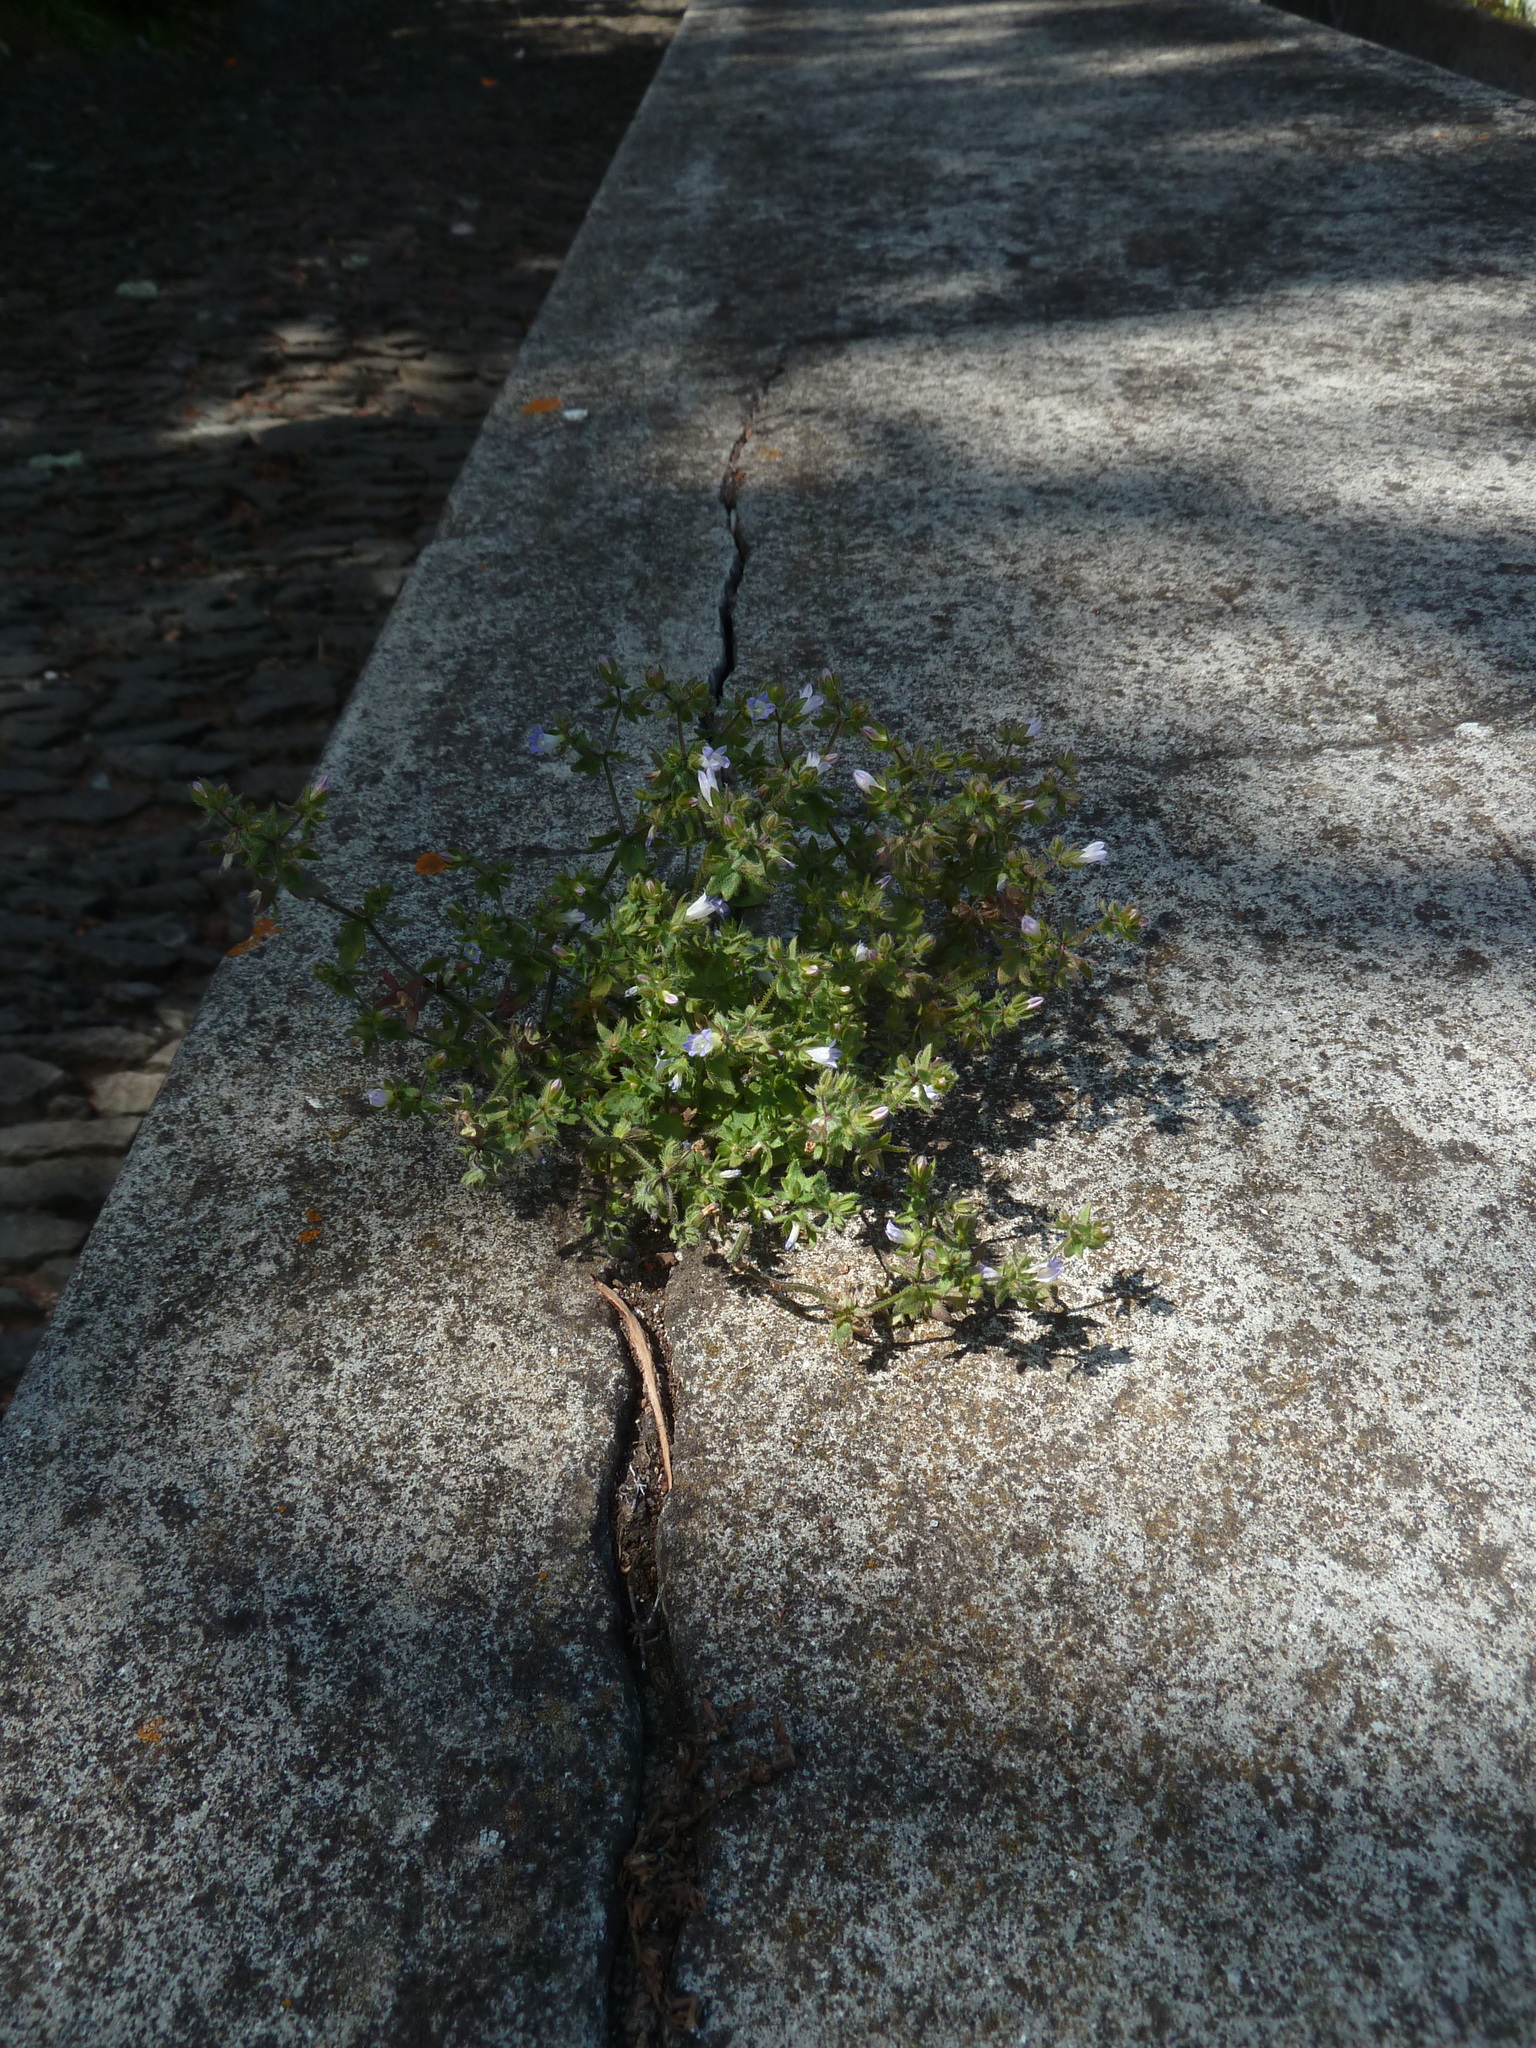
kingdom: Plantae
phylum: Tracheophyta
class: Magnoliopsida
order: Asterales
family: Campanulaceae
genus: Campanula
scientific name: Campanula erinus
